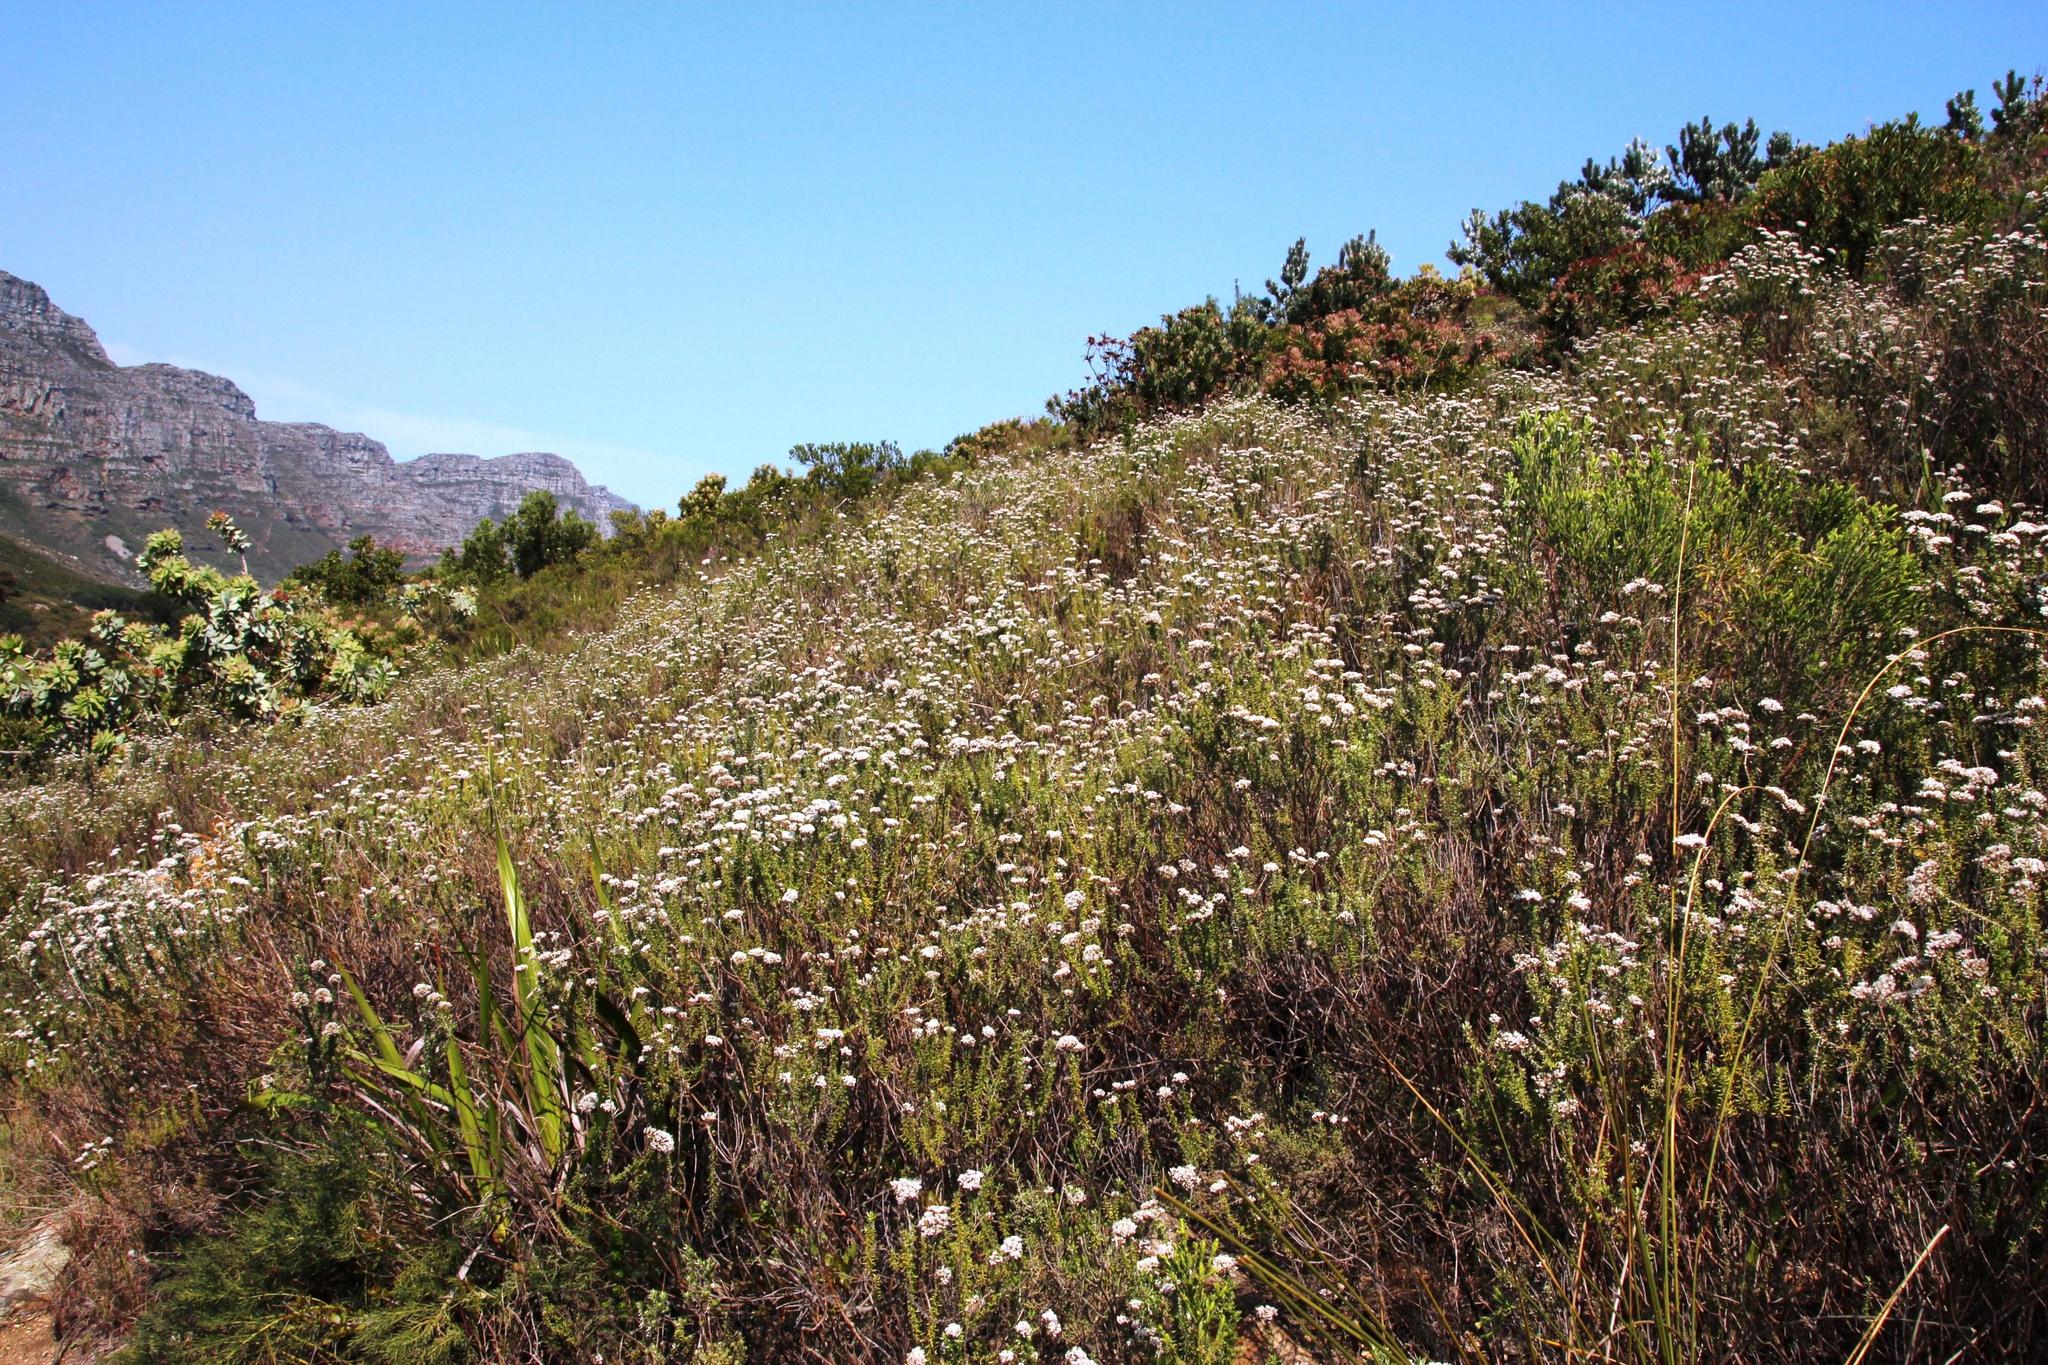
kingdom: Plantae
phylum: Tracheophyta
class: Magnoliopsida
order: Asterales
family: Asteraceae
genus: Metalasia
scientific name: Metalasia densa
